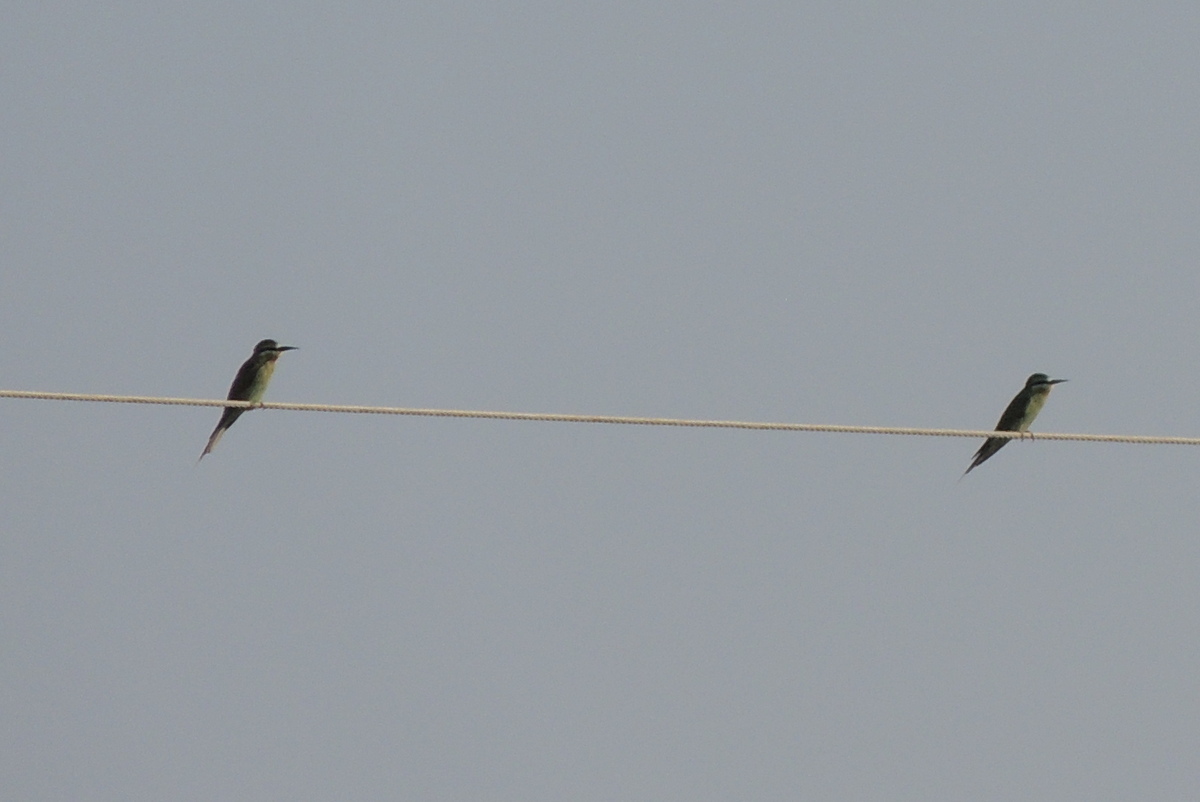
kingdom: Animalia
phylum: Chordata
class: Aves
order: Coraciiformes
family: Meropidae
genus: Merops
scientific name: Merops persicus
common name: Blue-cheeked bee-eater
